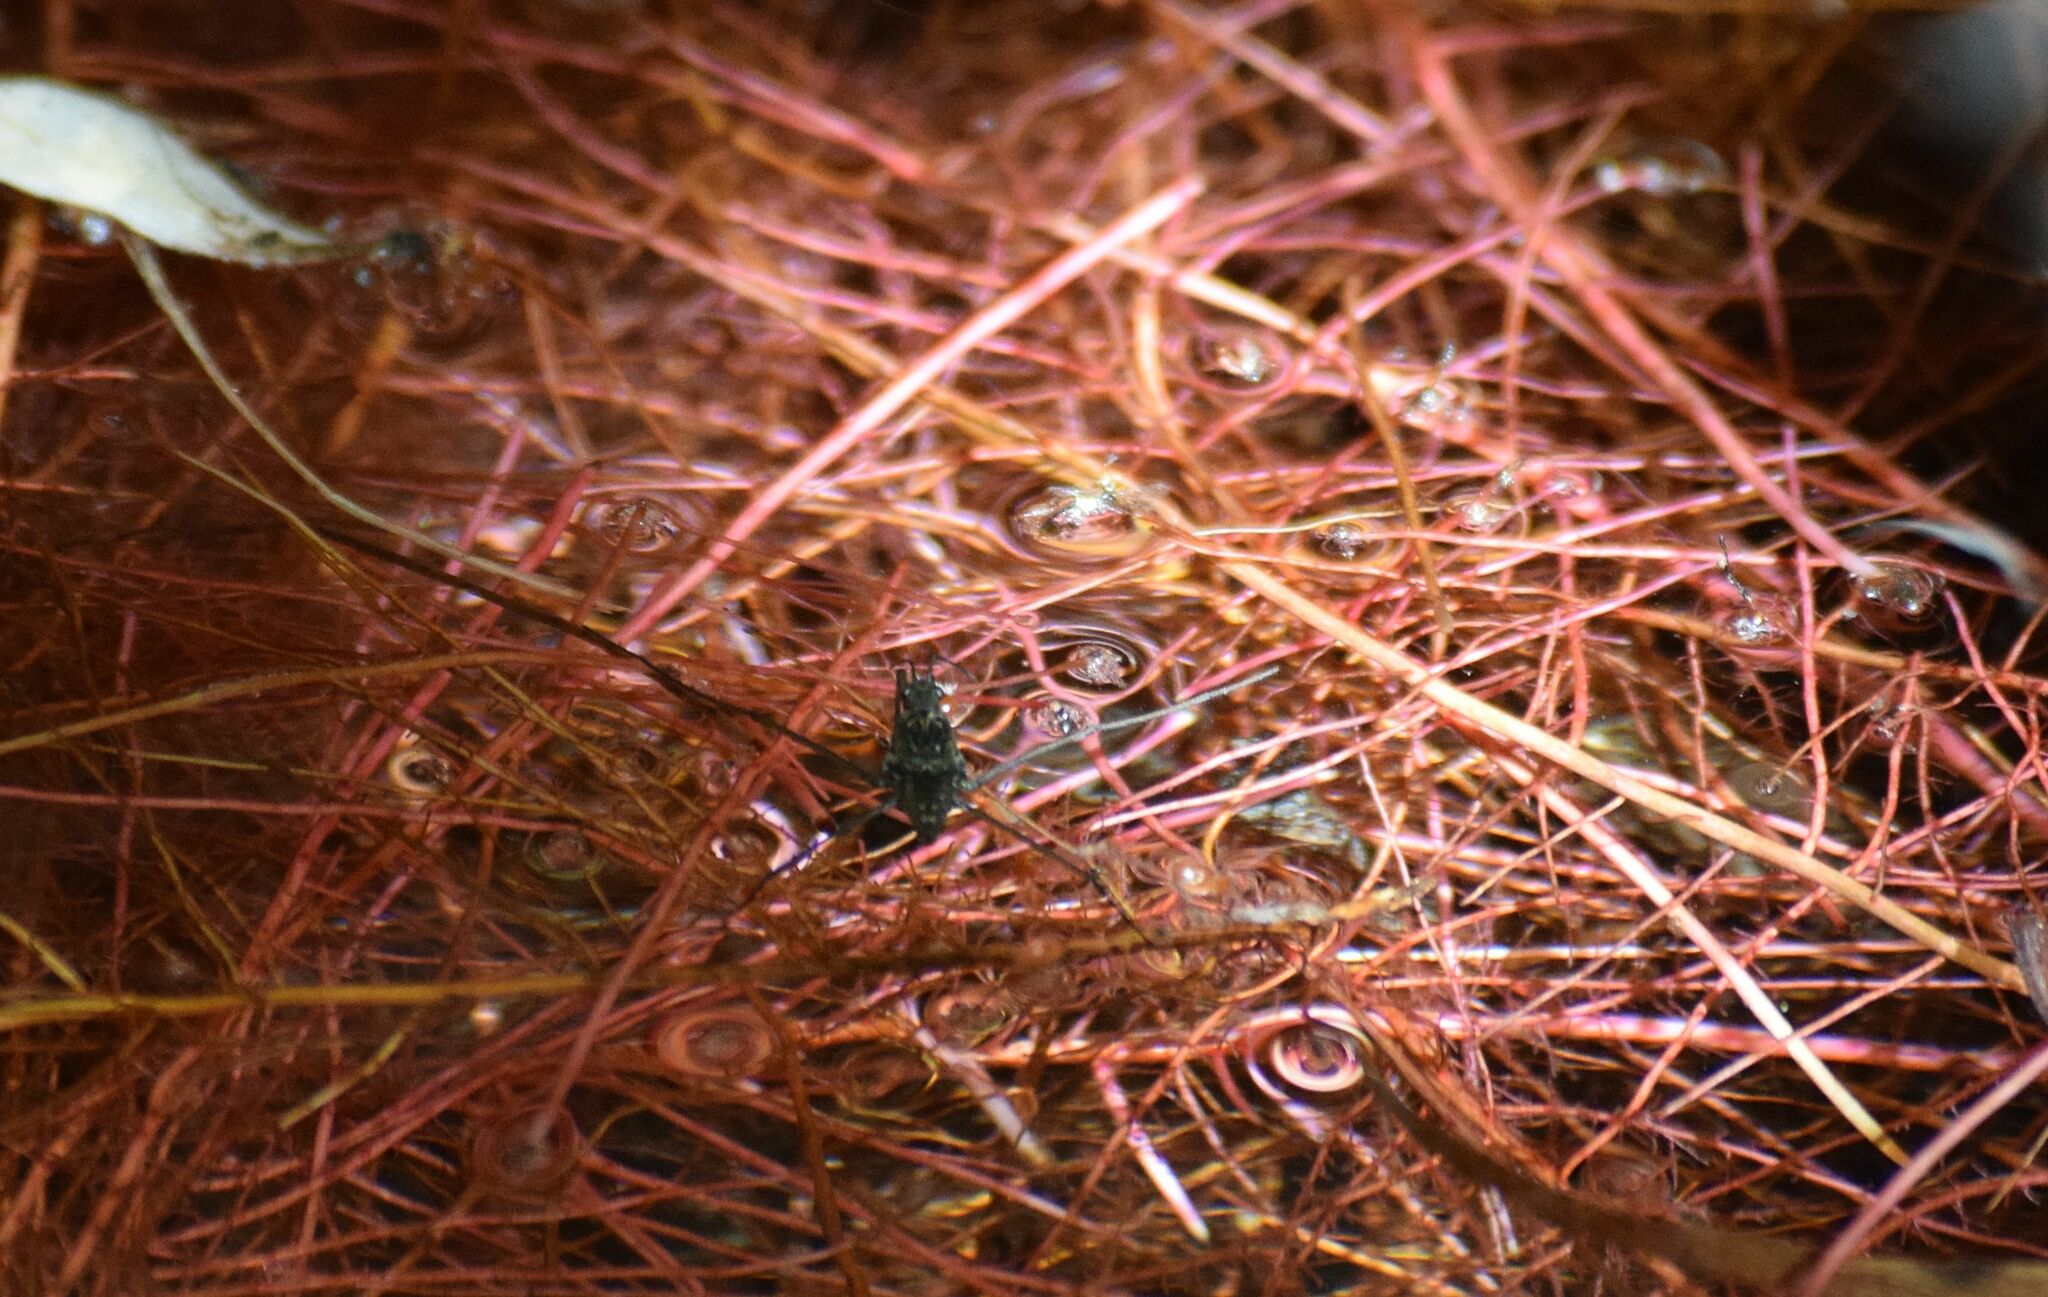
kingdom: Animalia
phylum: Arthropoda
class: Insecta
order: Hemiptera
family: Gerridae
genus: Aquarius
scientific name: Aquarius remigis
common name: Common water strider
